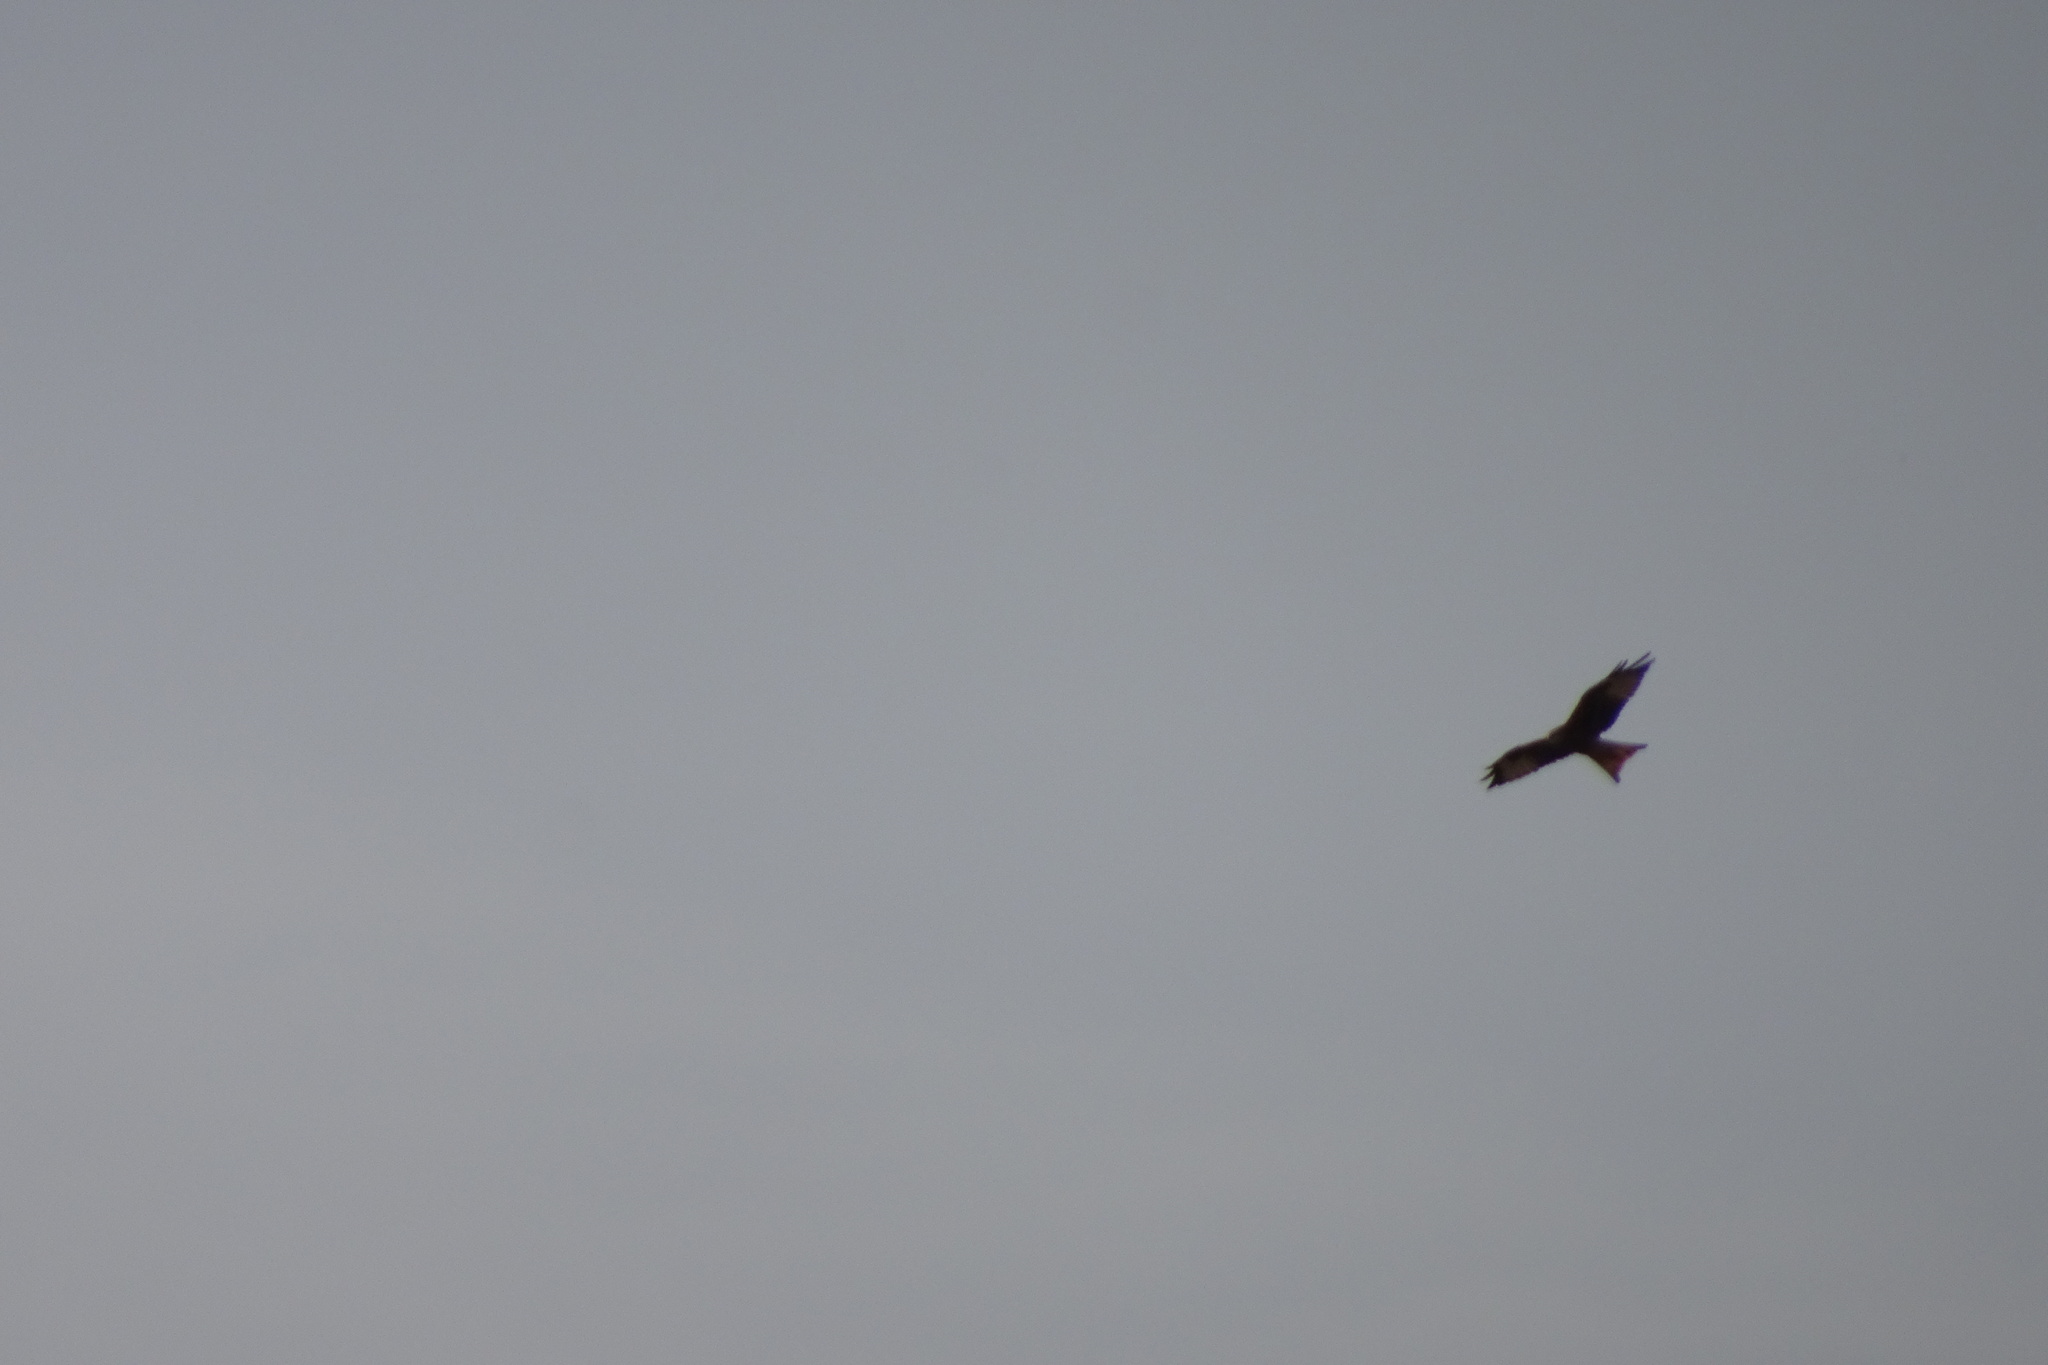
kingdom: Animalia
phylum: Chordata
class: Aves
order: Accipitriformes
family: Accipitridae
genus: Milvus
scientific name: Milvus milvus
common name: Red kite
